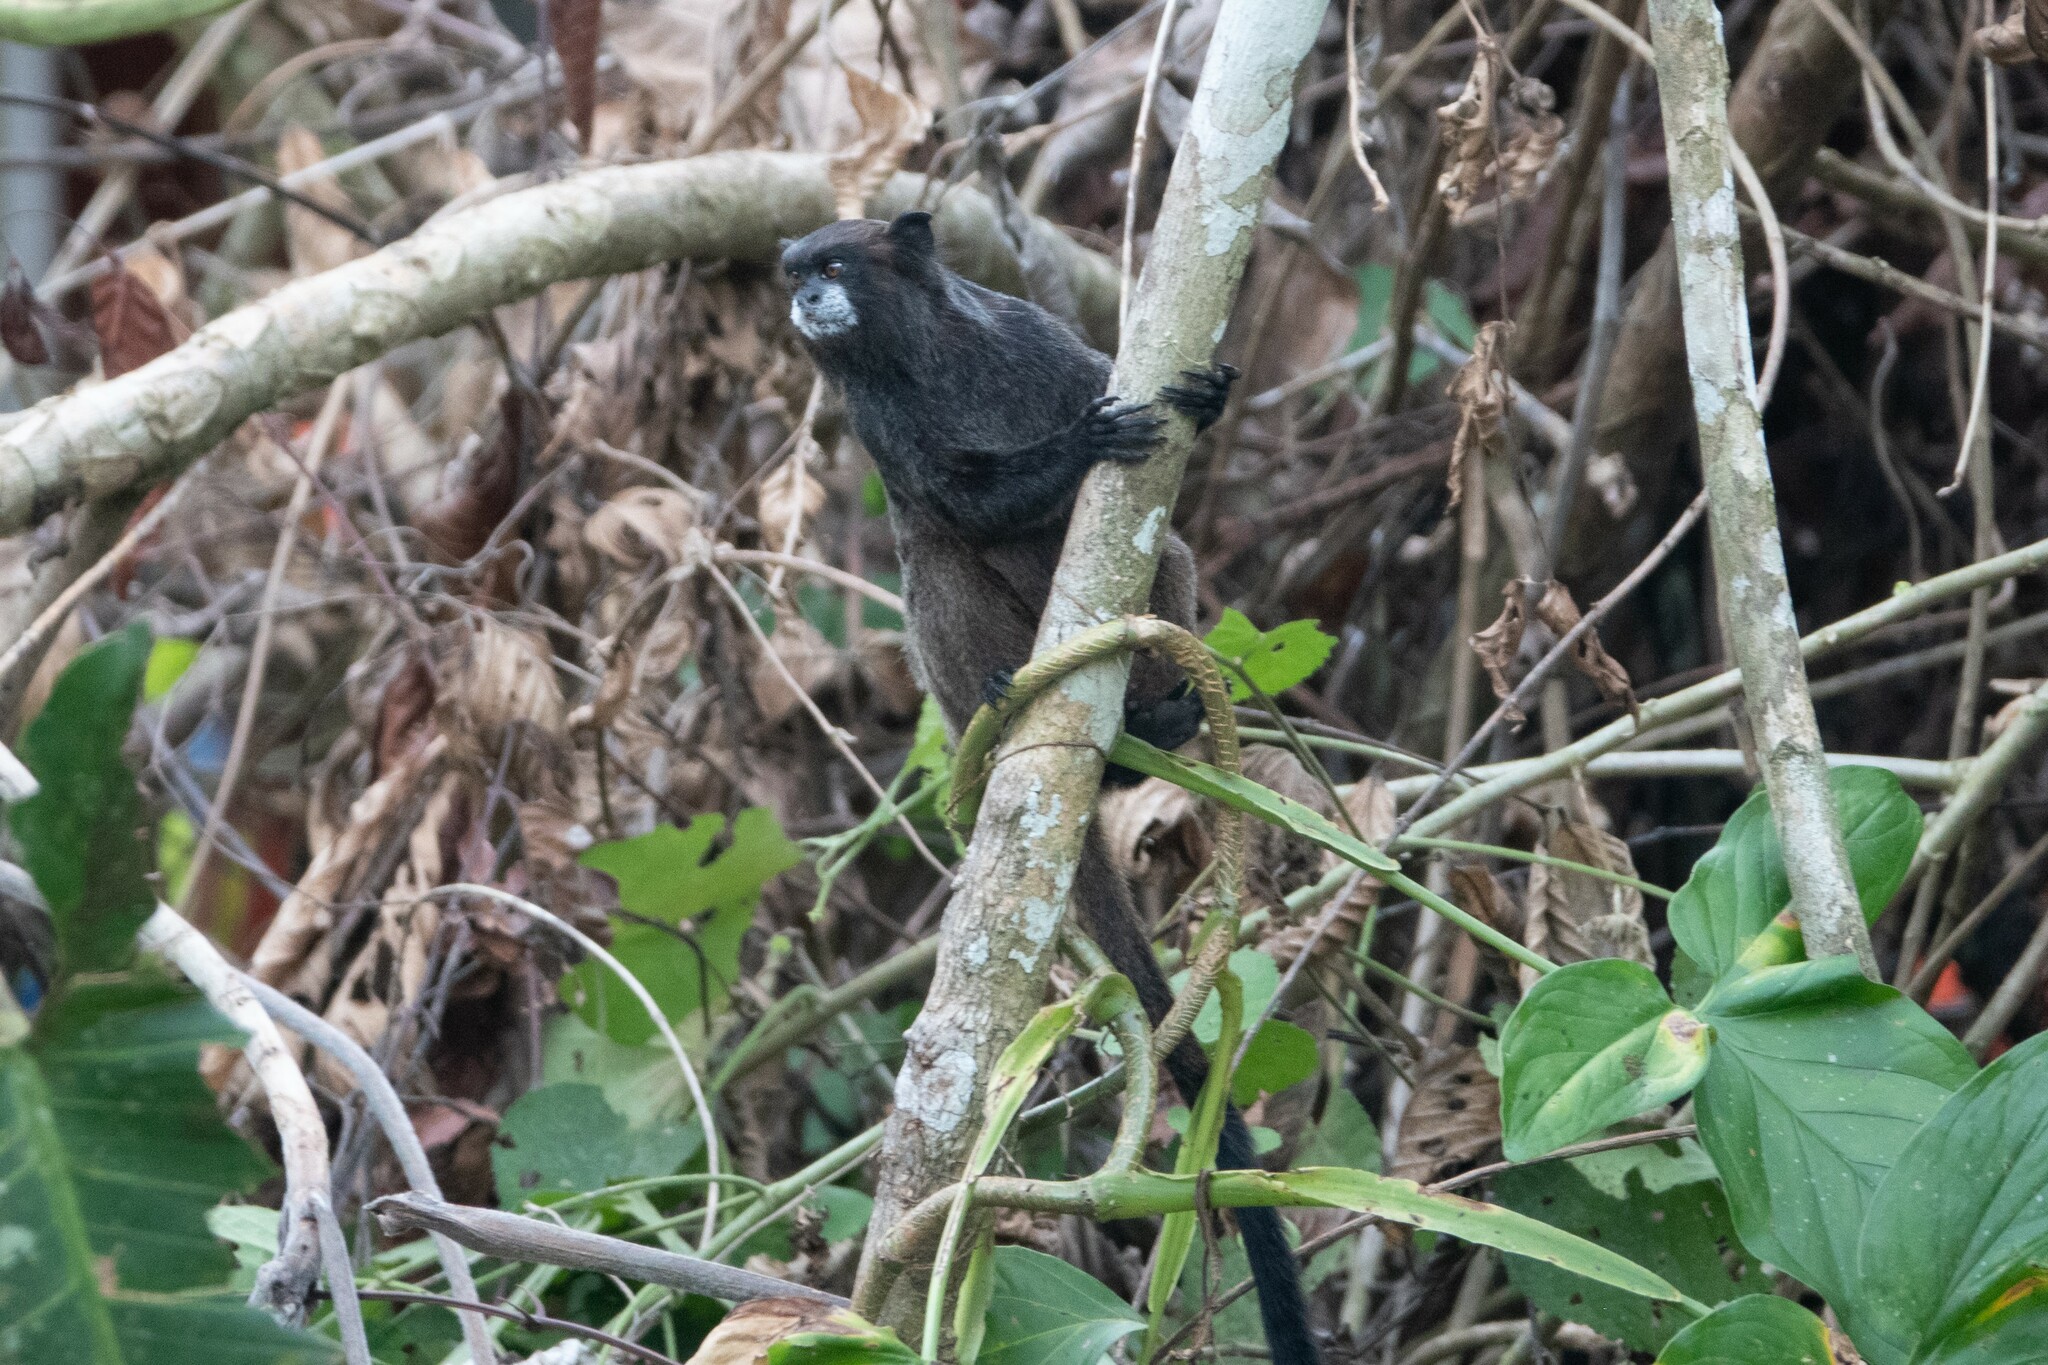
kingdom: Animalia
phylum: Chordata
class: Mammalia
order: Primates
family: Callitrichidae
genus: Leontocebus
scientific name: Leontocebus nigricollis
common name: Black-mantled tamarin
